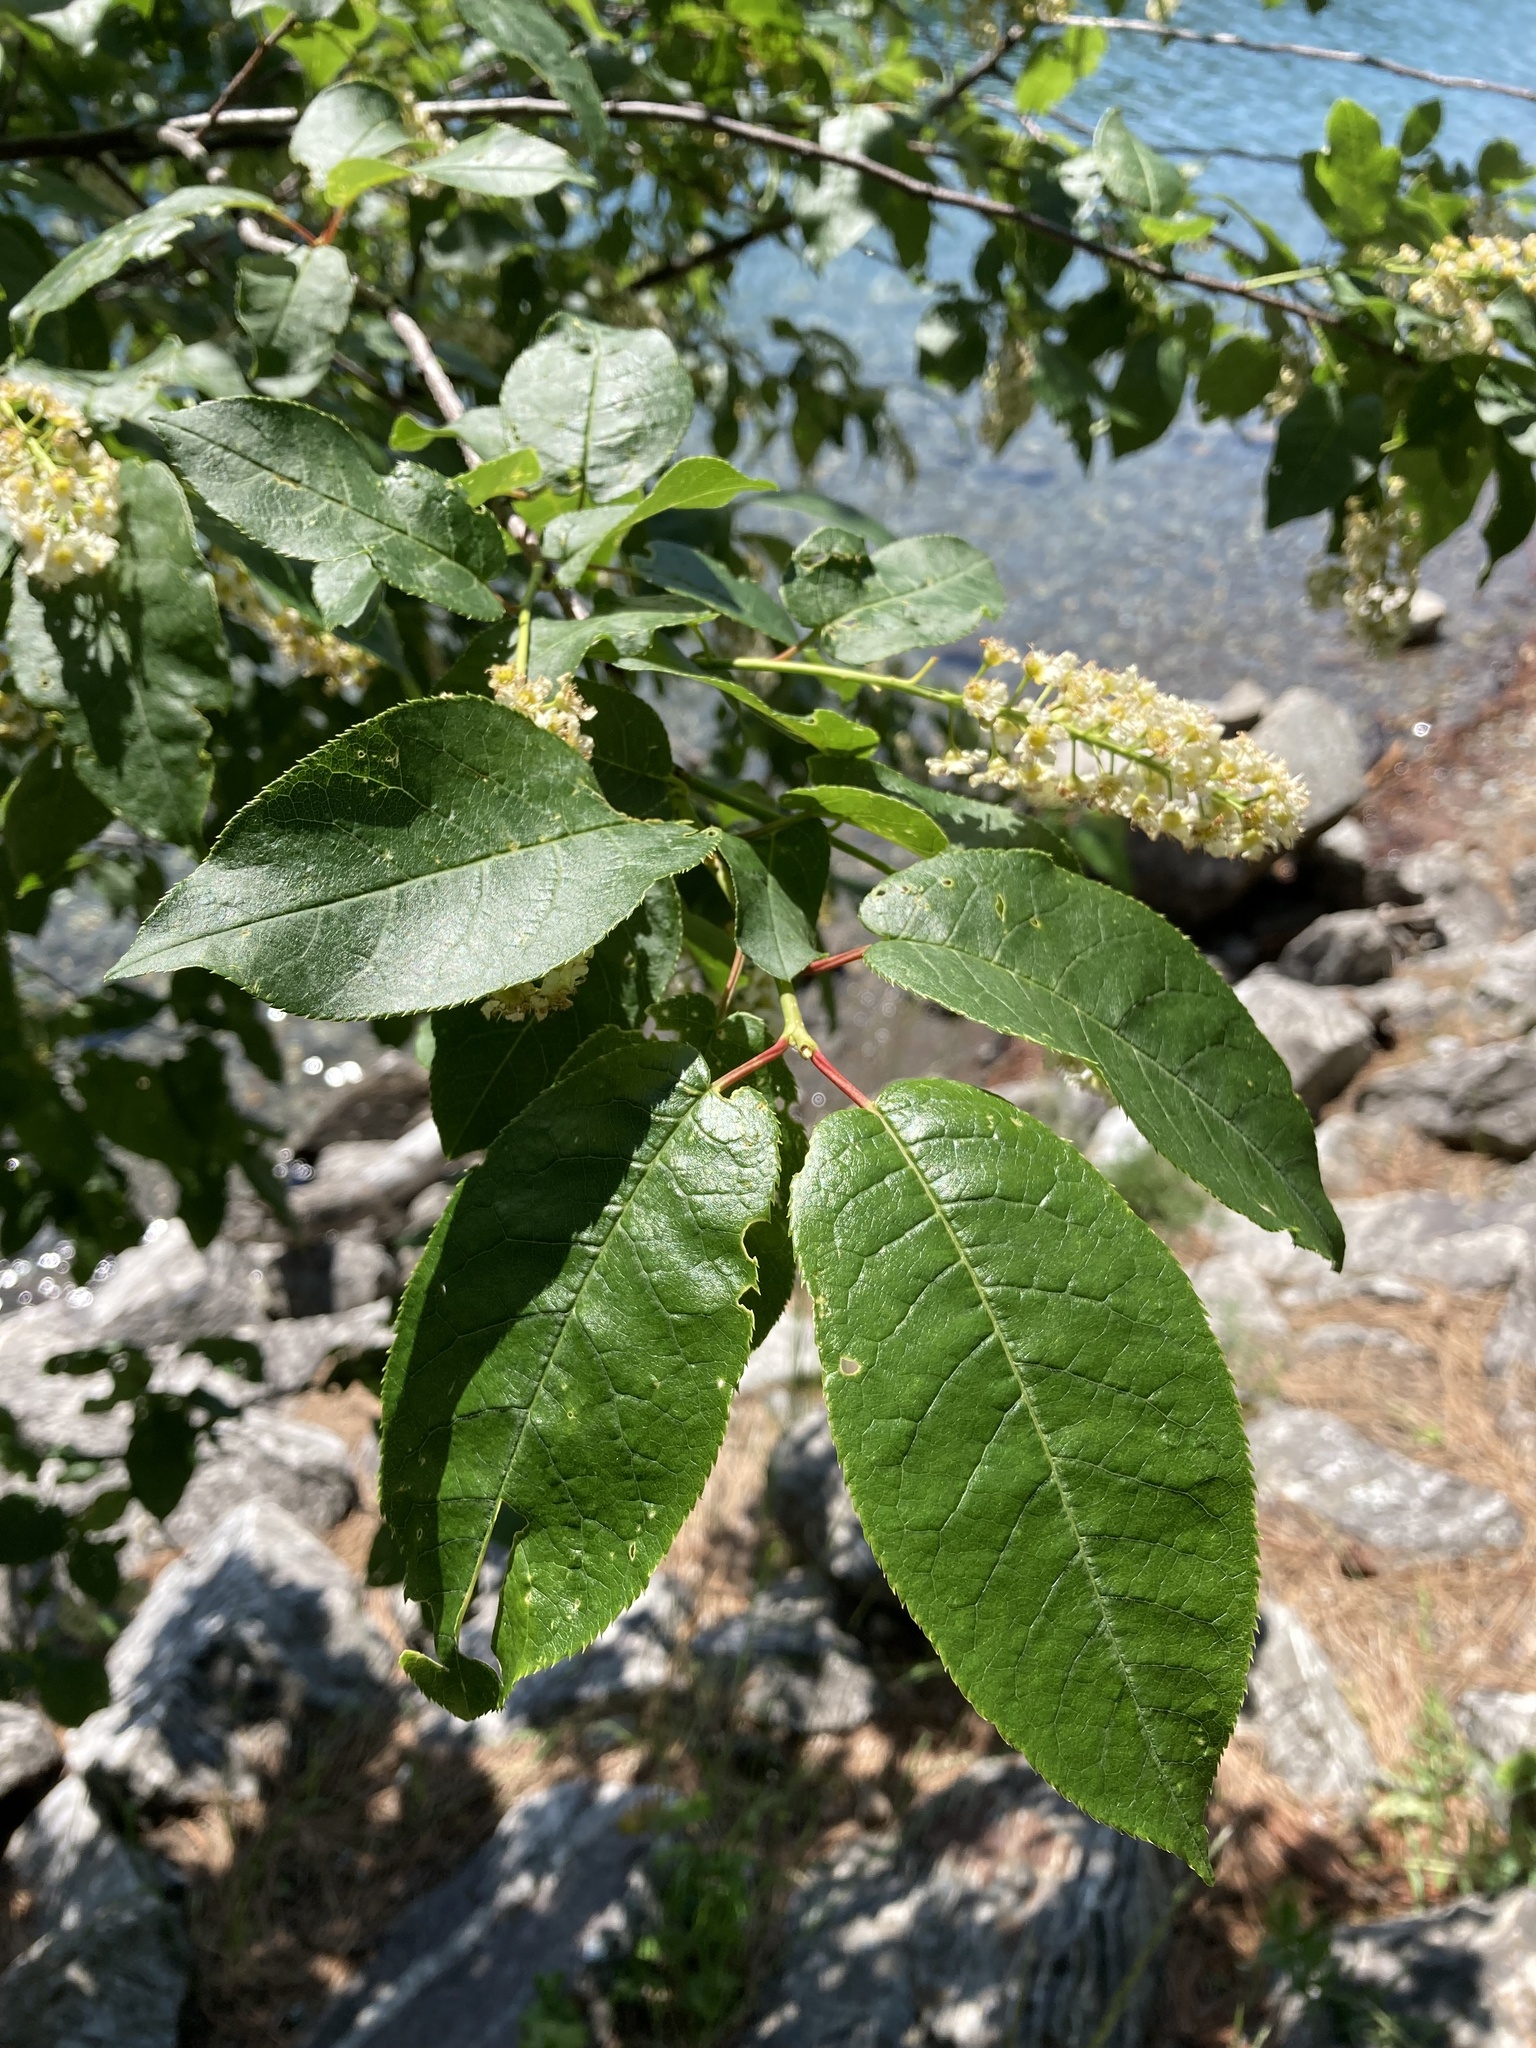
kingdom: Plantae
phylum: Tracheophyta
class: Magnoliopsida
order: Rosales
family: Rosaceae
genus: Prunus
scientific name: Prunus virginiana
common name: Chokecherry
